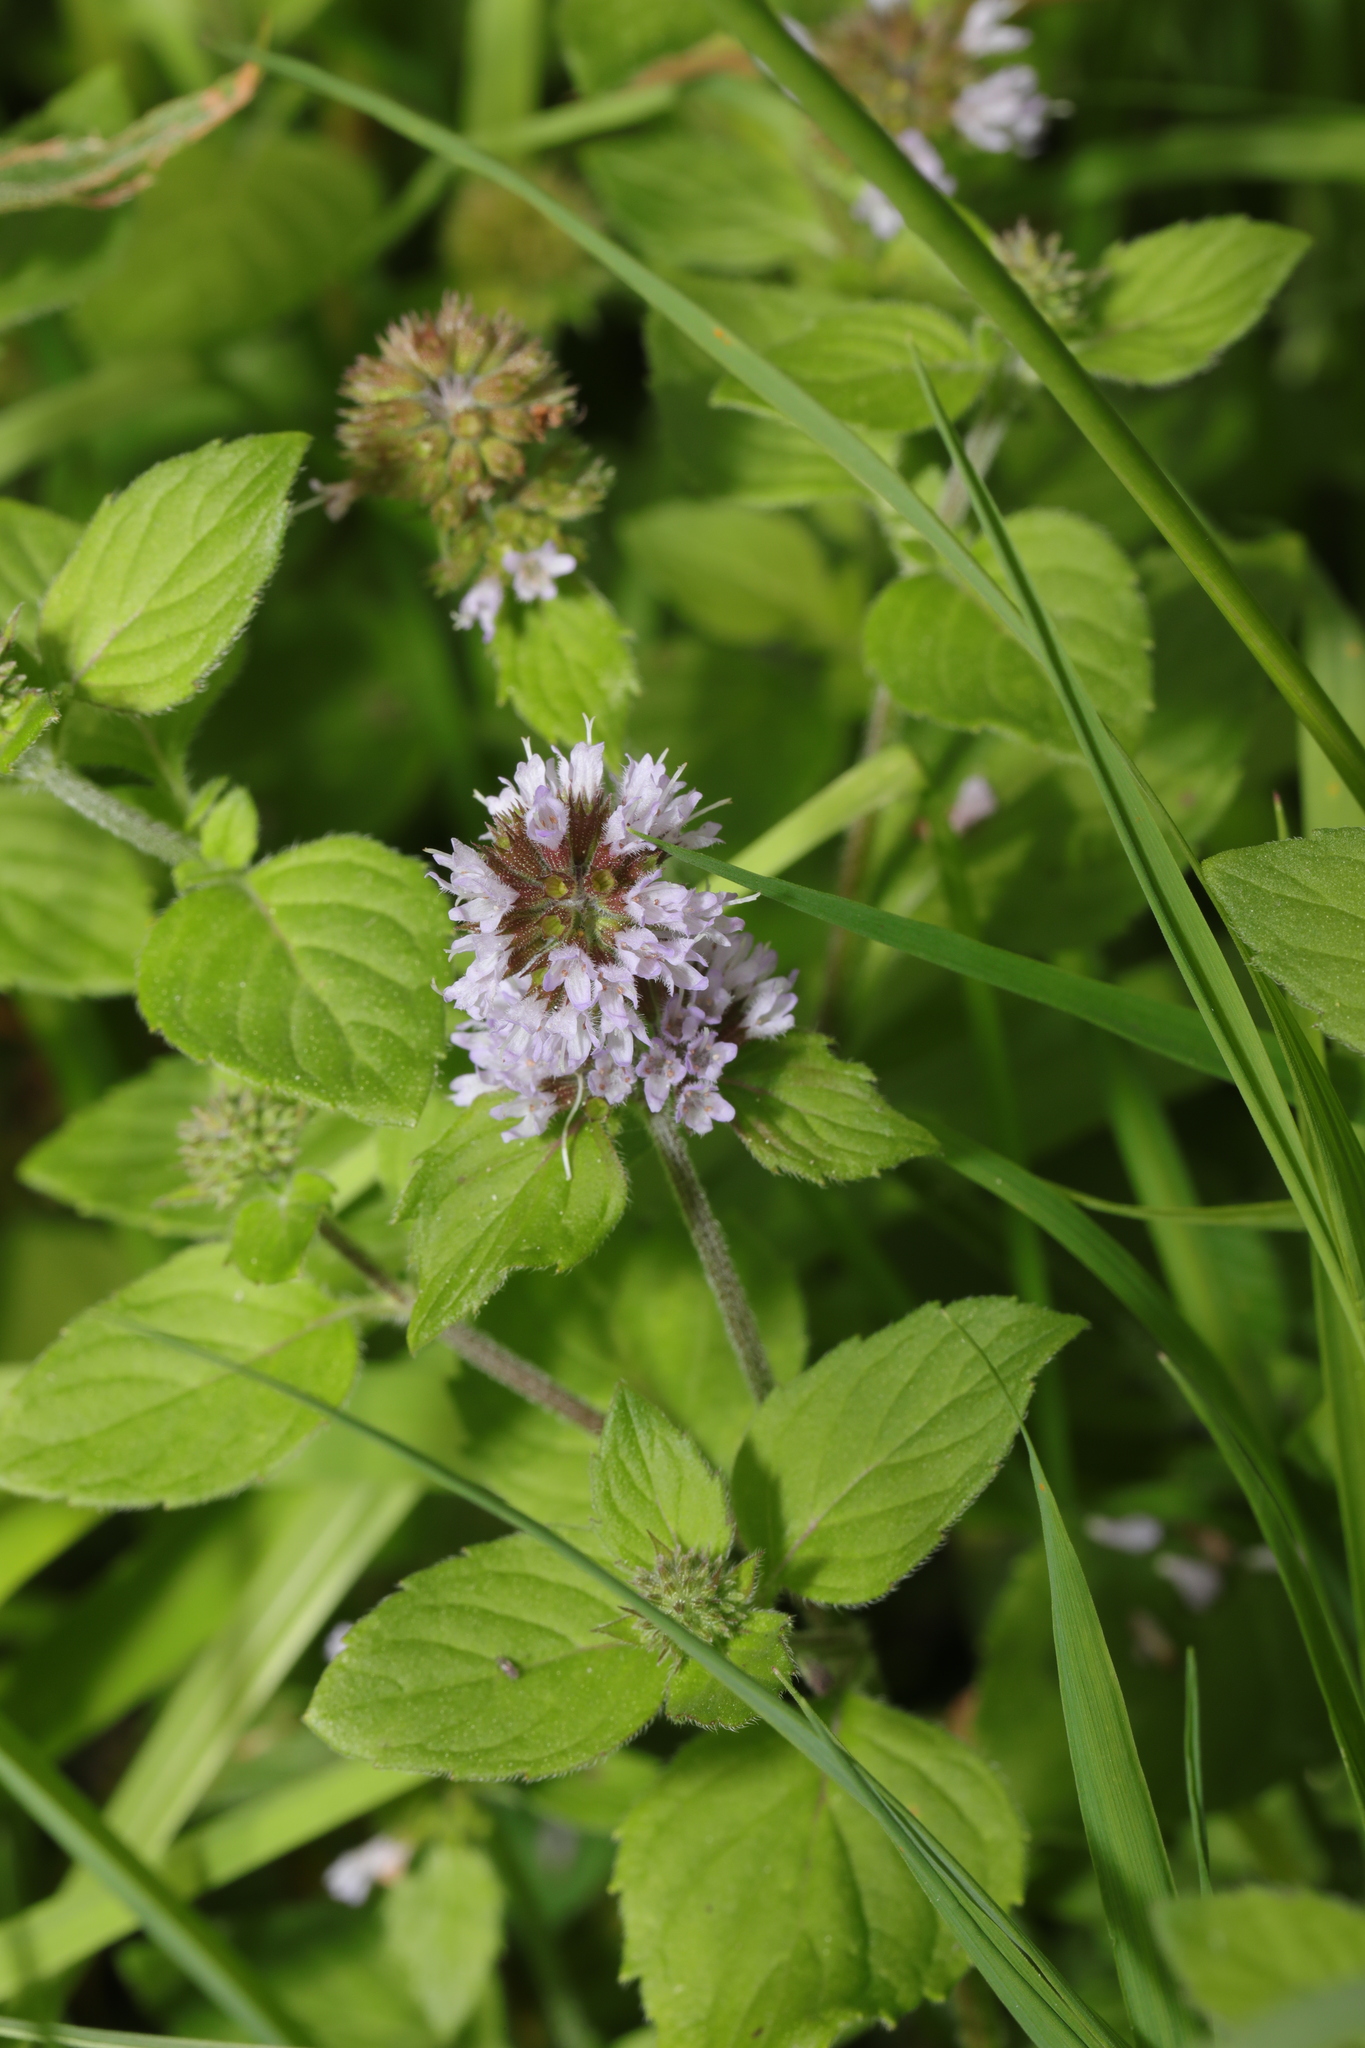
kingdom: Plantae
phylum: Tracheophyta
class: Magnoliopsida
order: Lamiales
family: Lamiaceae
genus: Mentha
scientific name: Mentha aquatica
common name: Water mint
